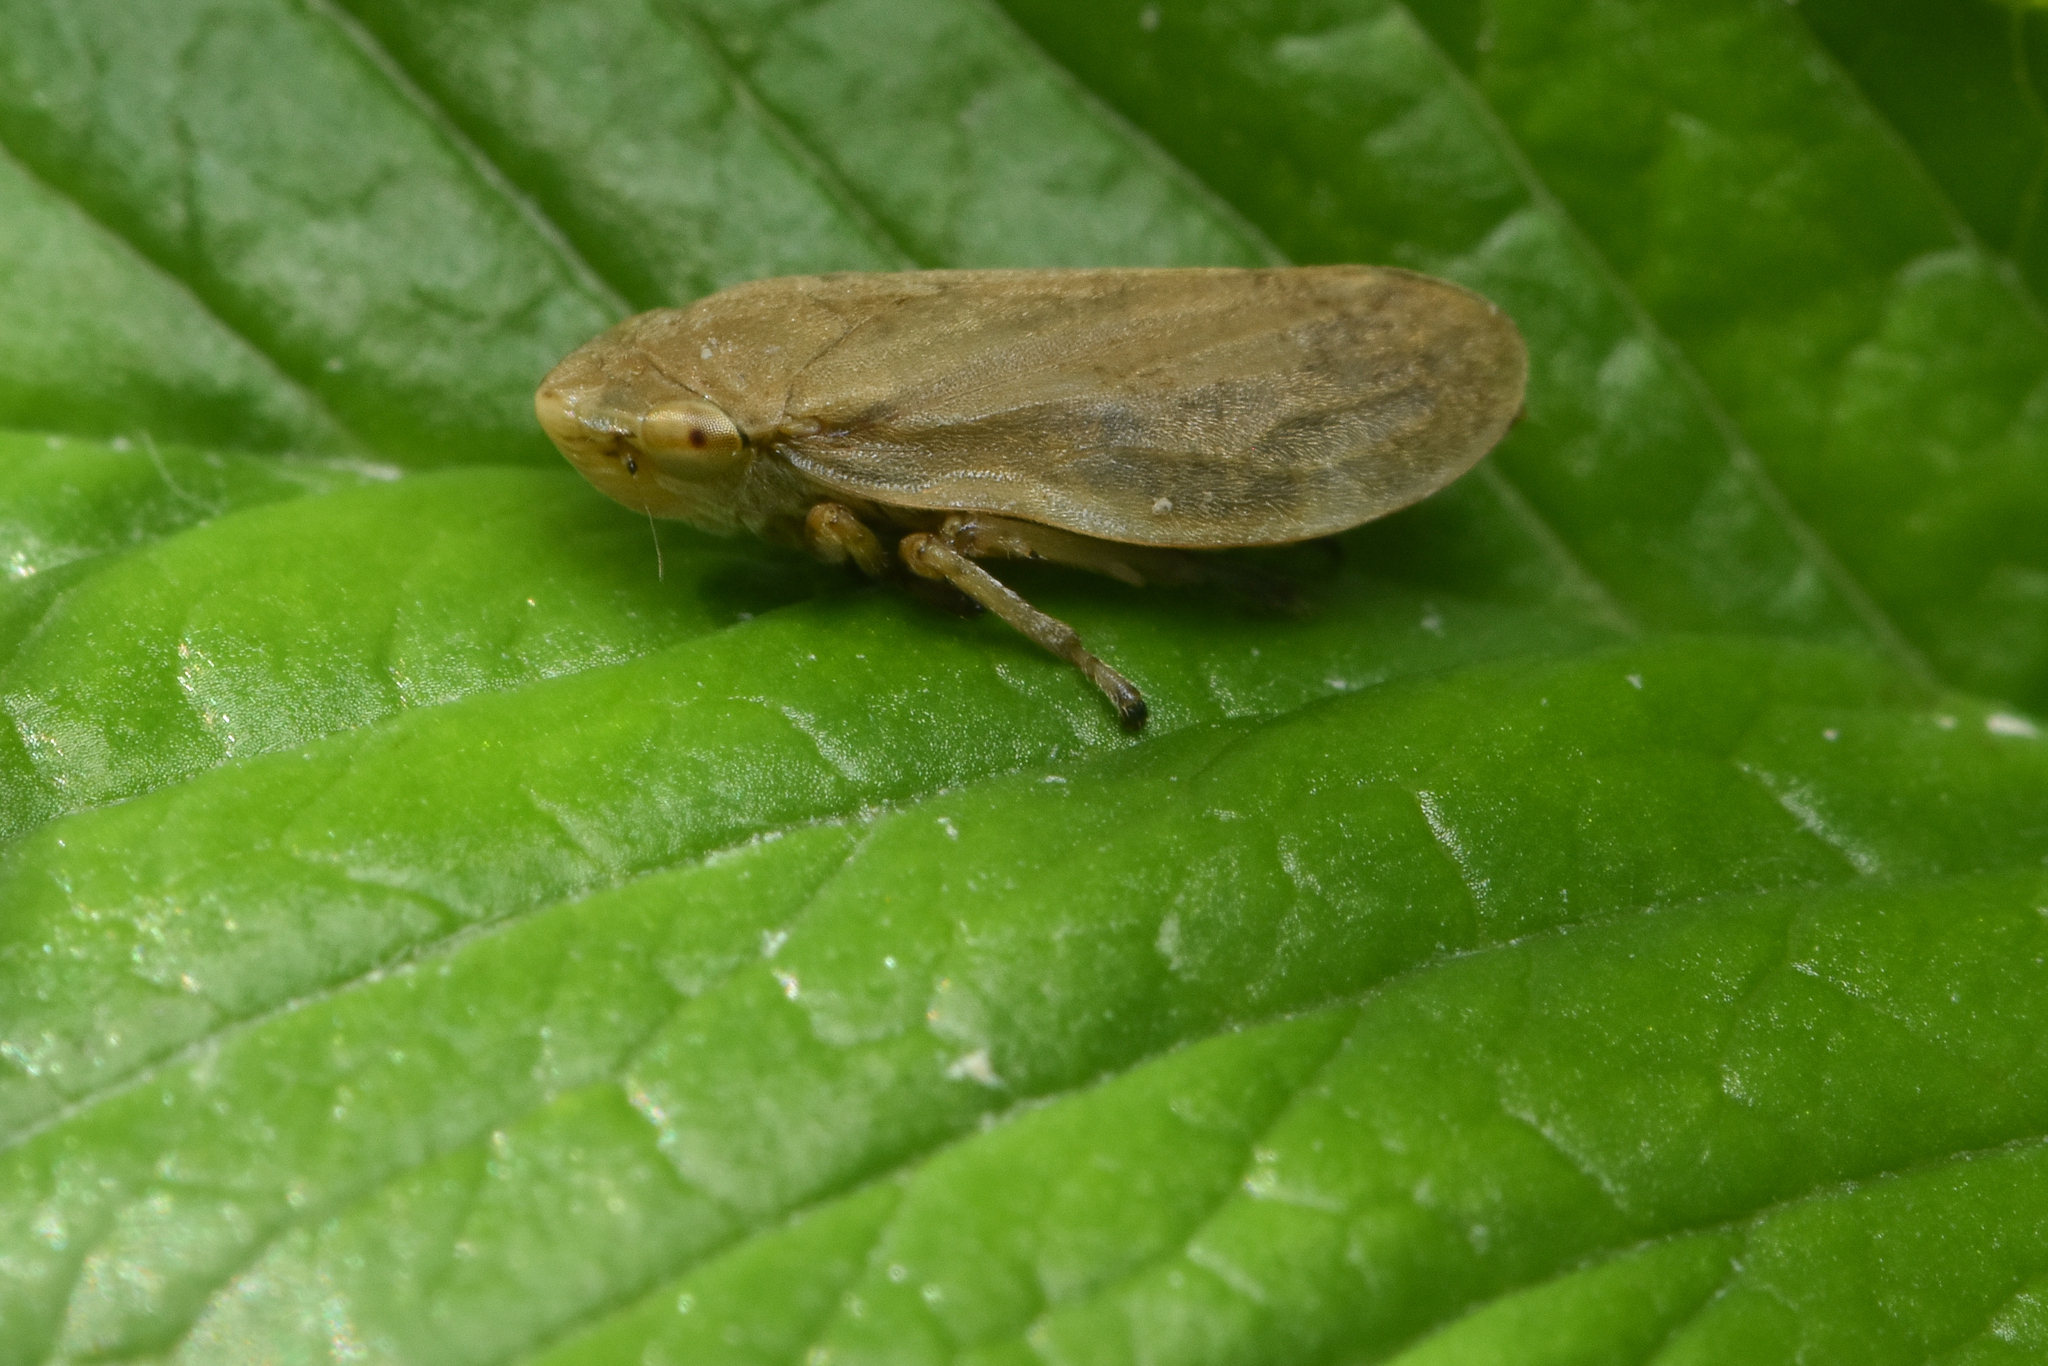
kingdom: Animalia
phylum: Arthropoda
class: Insecta
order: Hemiptera
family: Aphrophoridae
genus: Philaenus
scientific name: Philaenus spumarius
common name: Meadow spittlebug
